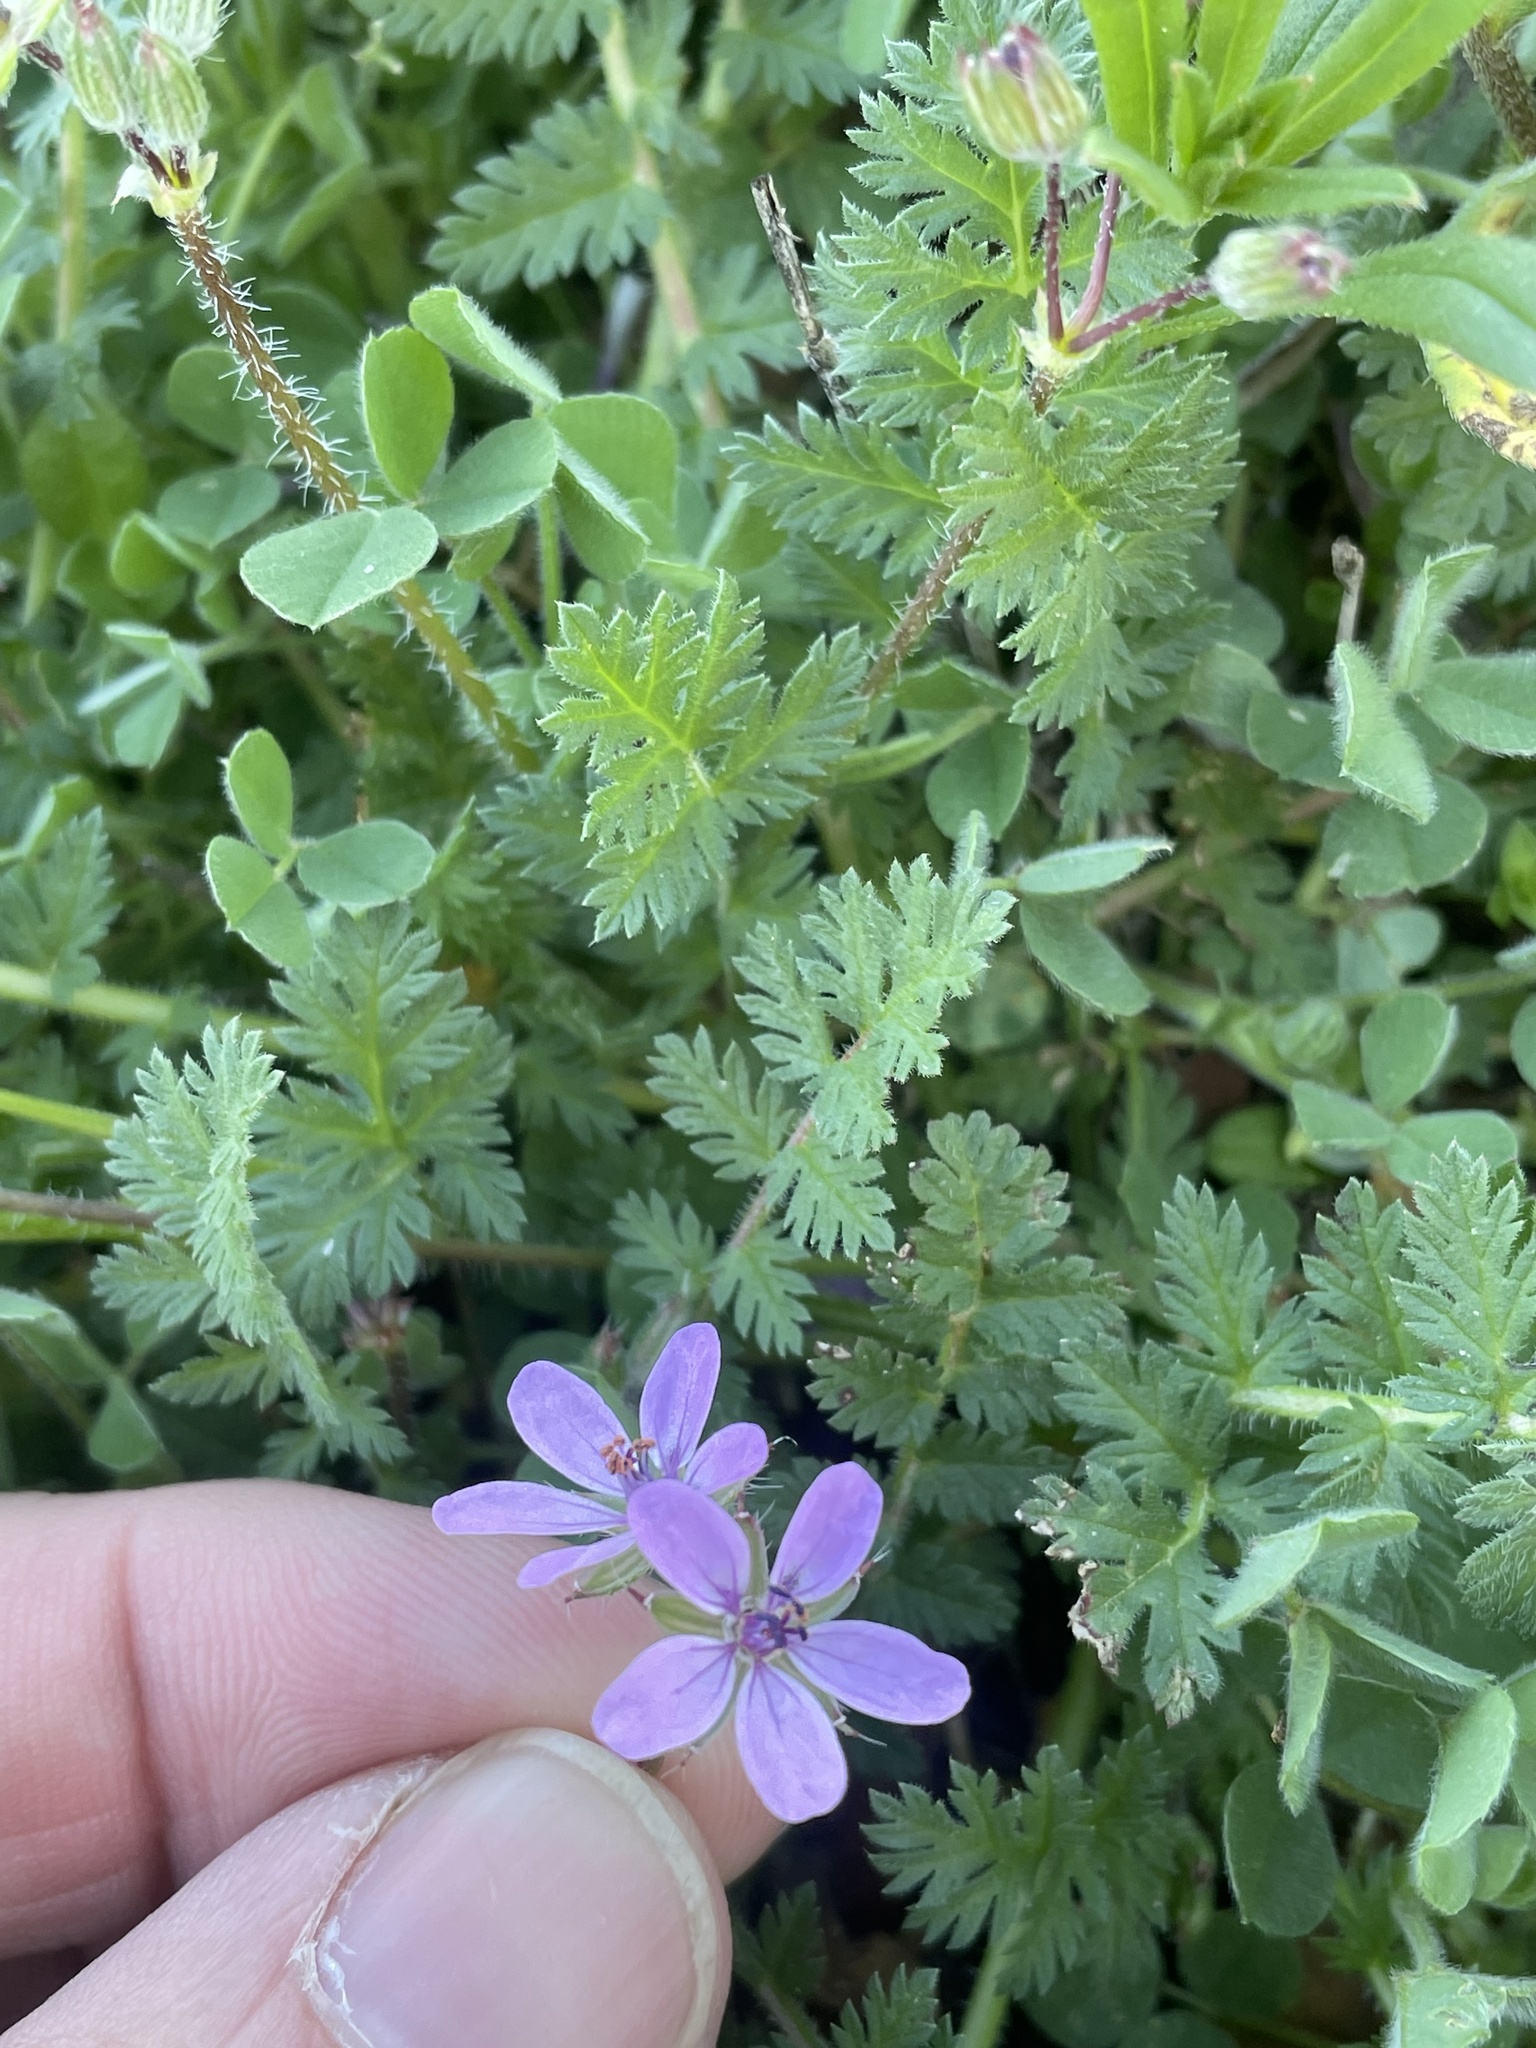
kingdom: Plantae
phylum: Tracheophyta
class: Magnoliopsida
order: Geraniales
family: Geraniaceae
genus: Erodium
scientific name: Erodium cicutarium
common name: Common stork's-bill
